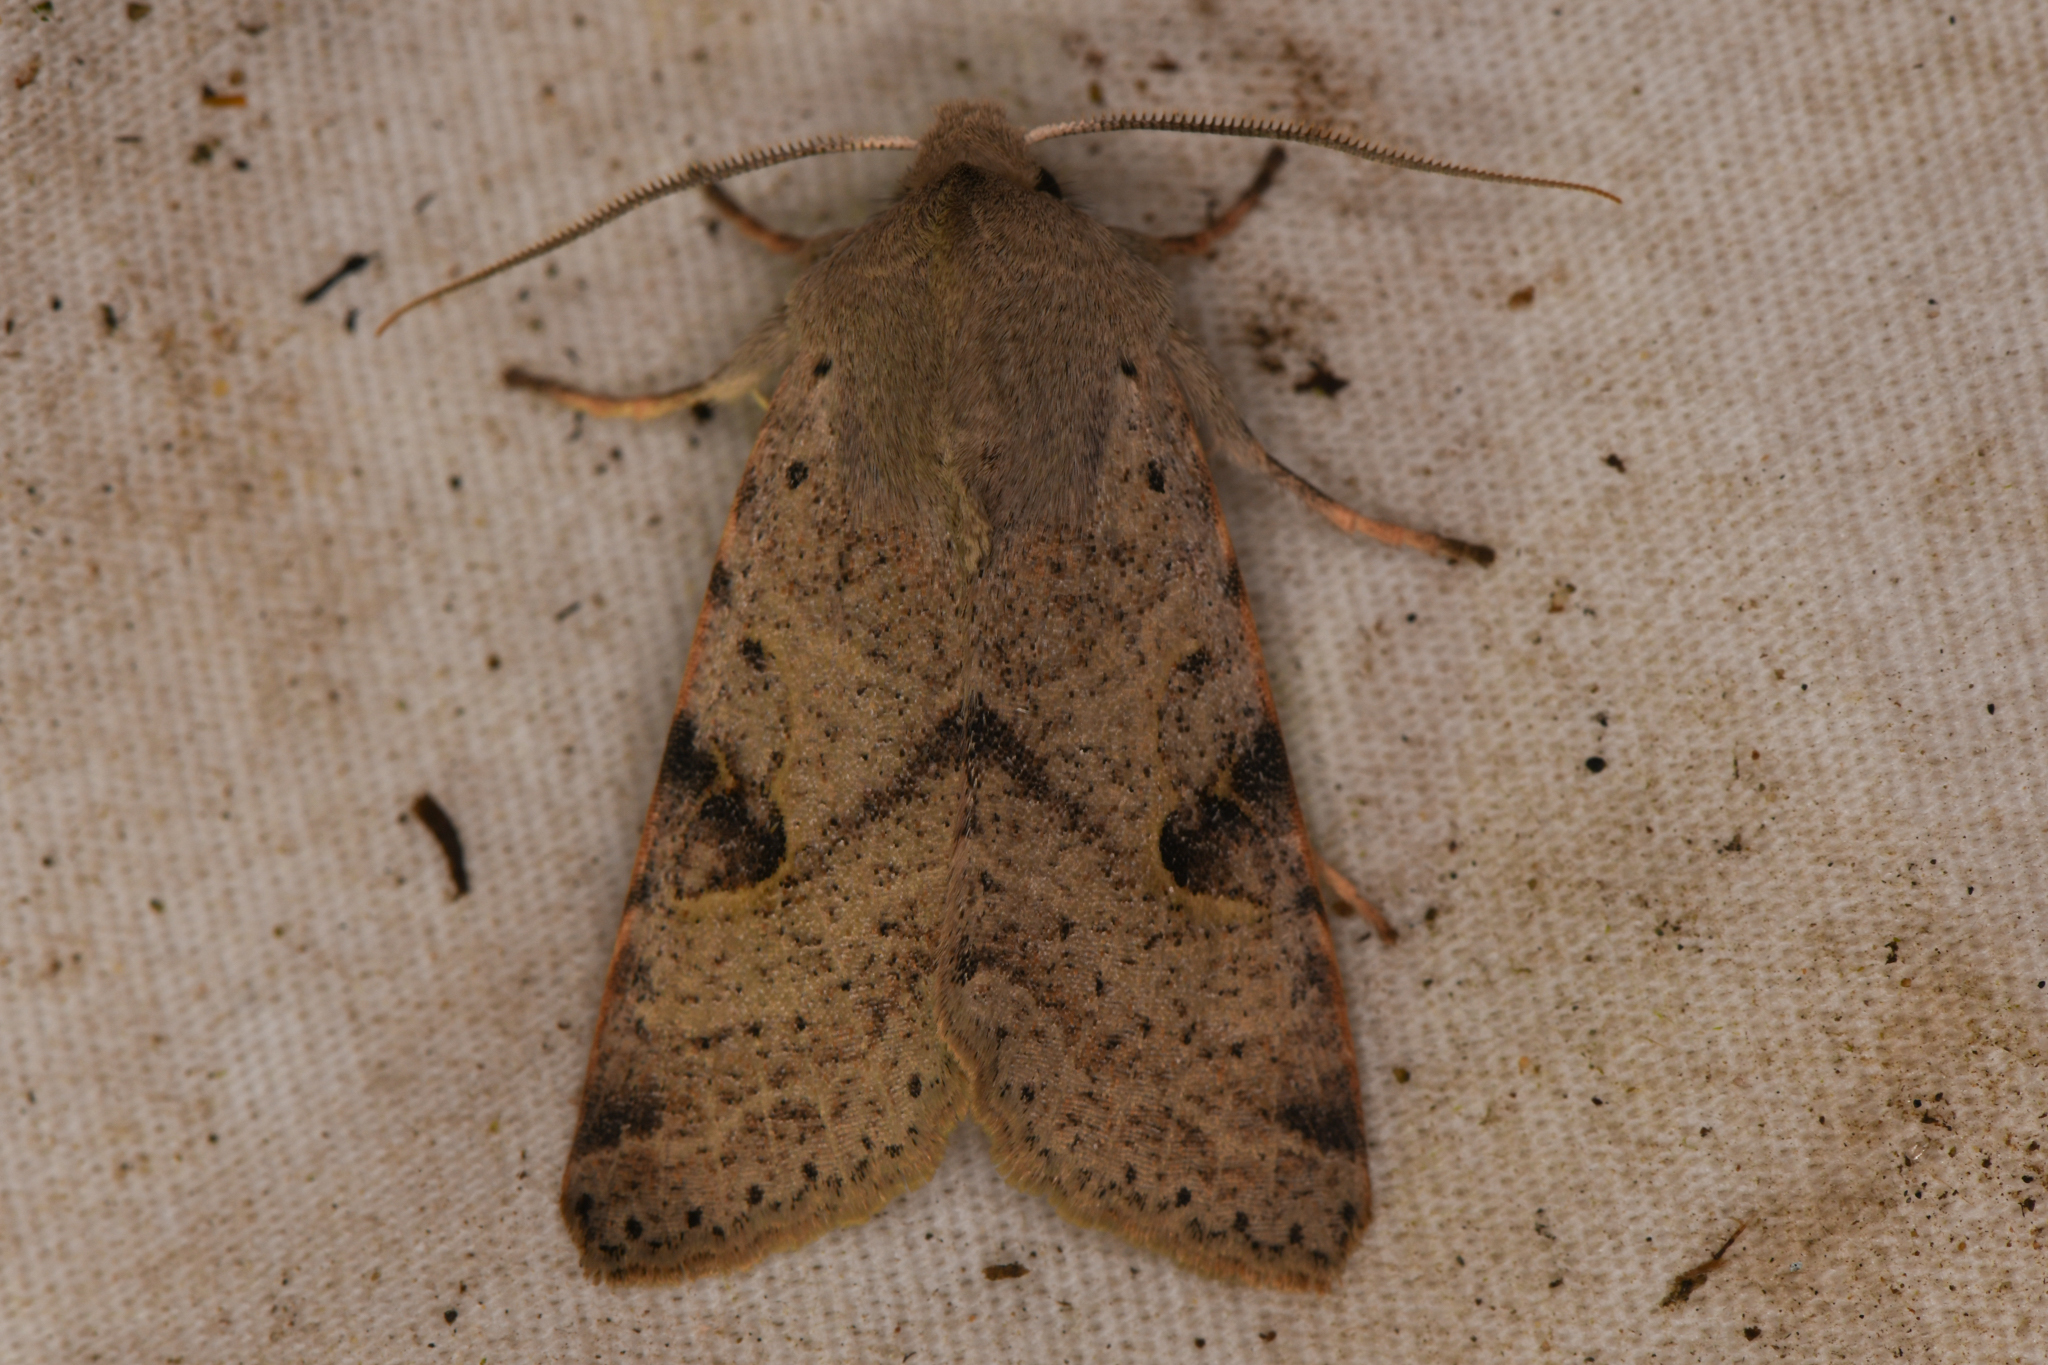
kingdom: Animalia
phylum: Arthropoda
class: Insecta
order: Lepidoptera
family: Noctuidae
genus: Orthosia
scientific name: Orthosia behrensiana
